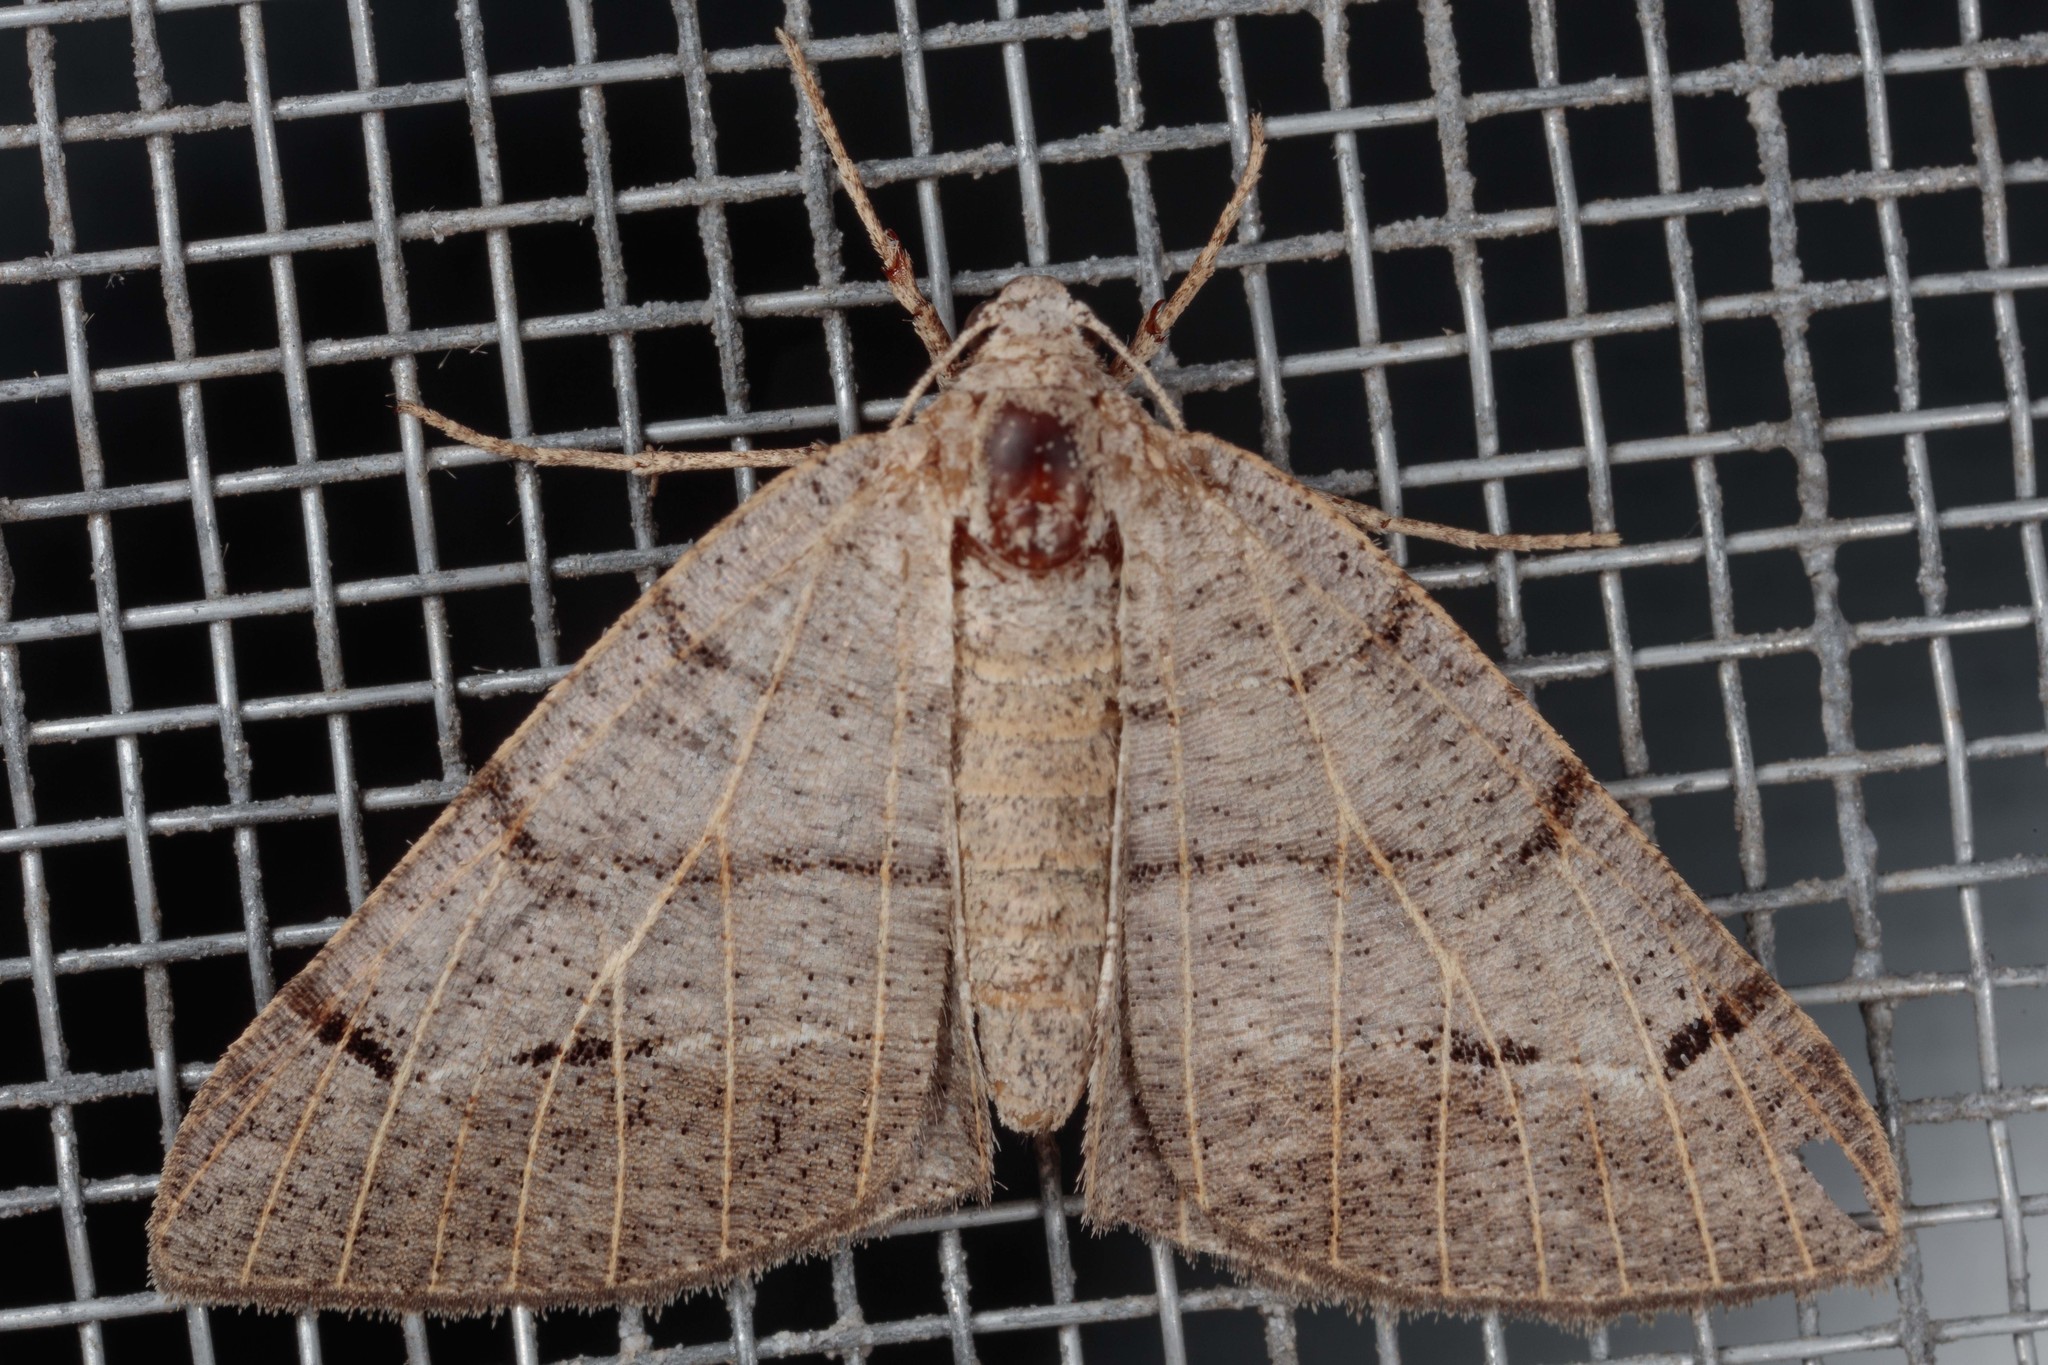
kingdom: Animalia
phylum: Arthropoda
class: Insecta
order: Lepidoptera
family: Geometridae
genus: Isturgia
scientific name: Isturgia dislocaria
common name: Pale-viened enconista
